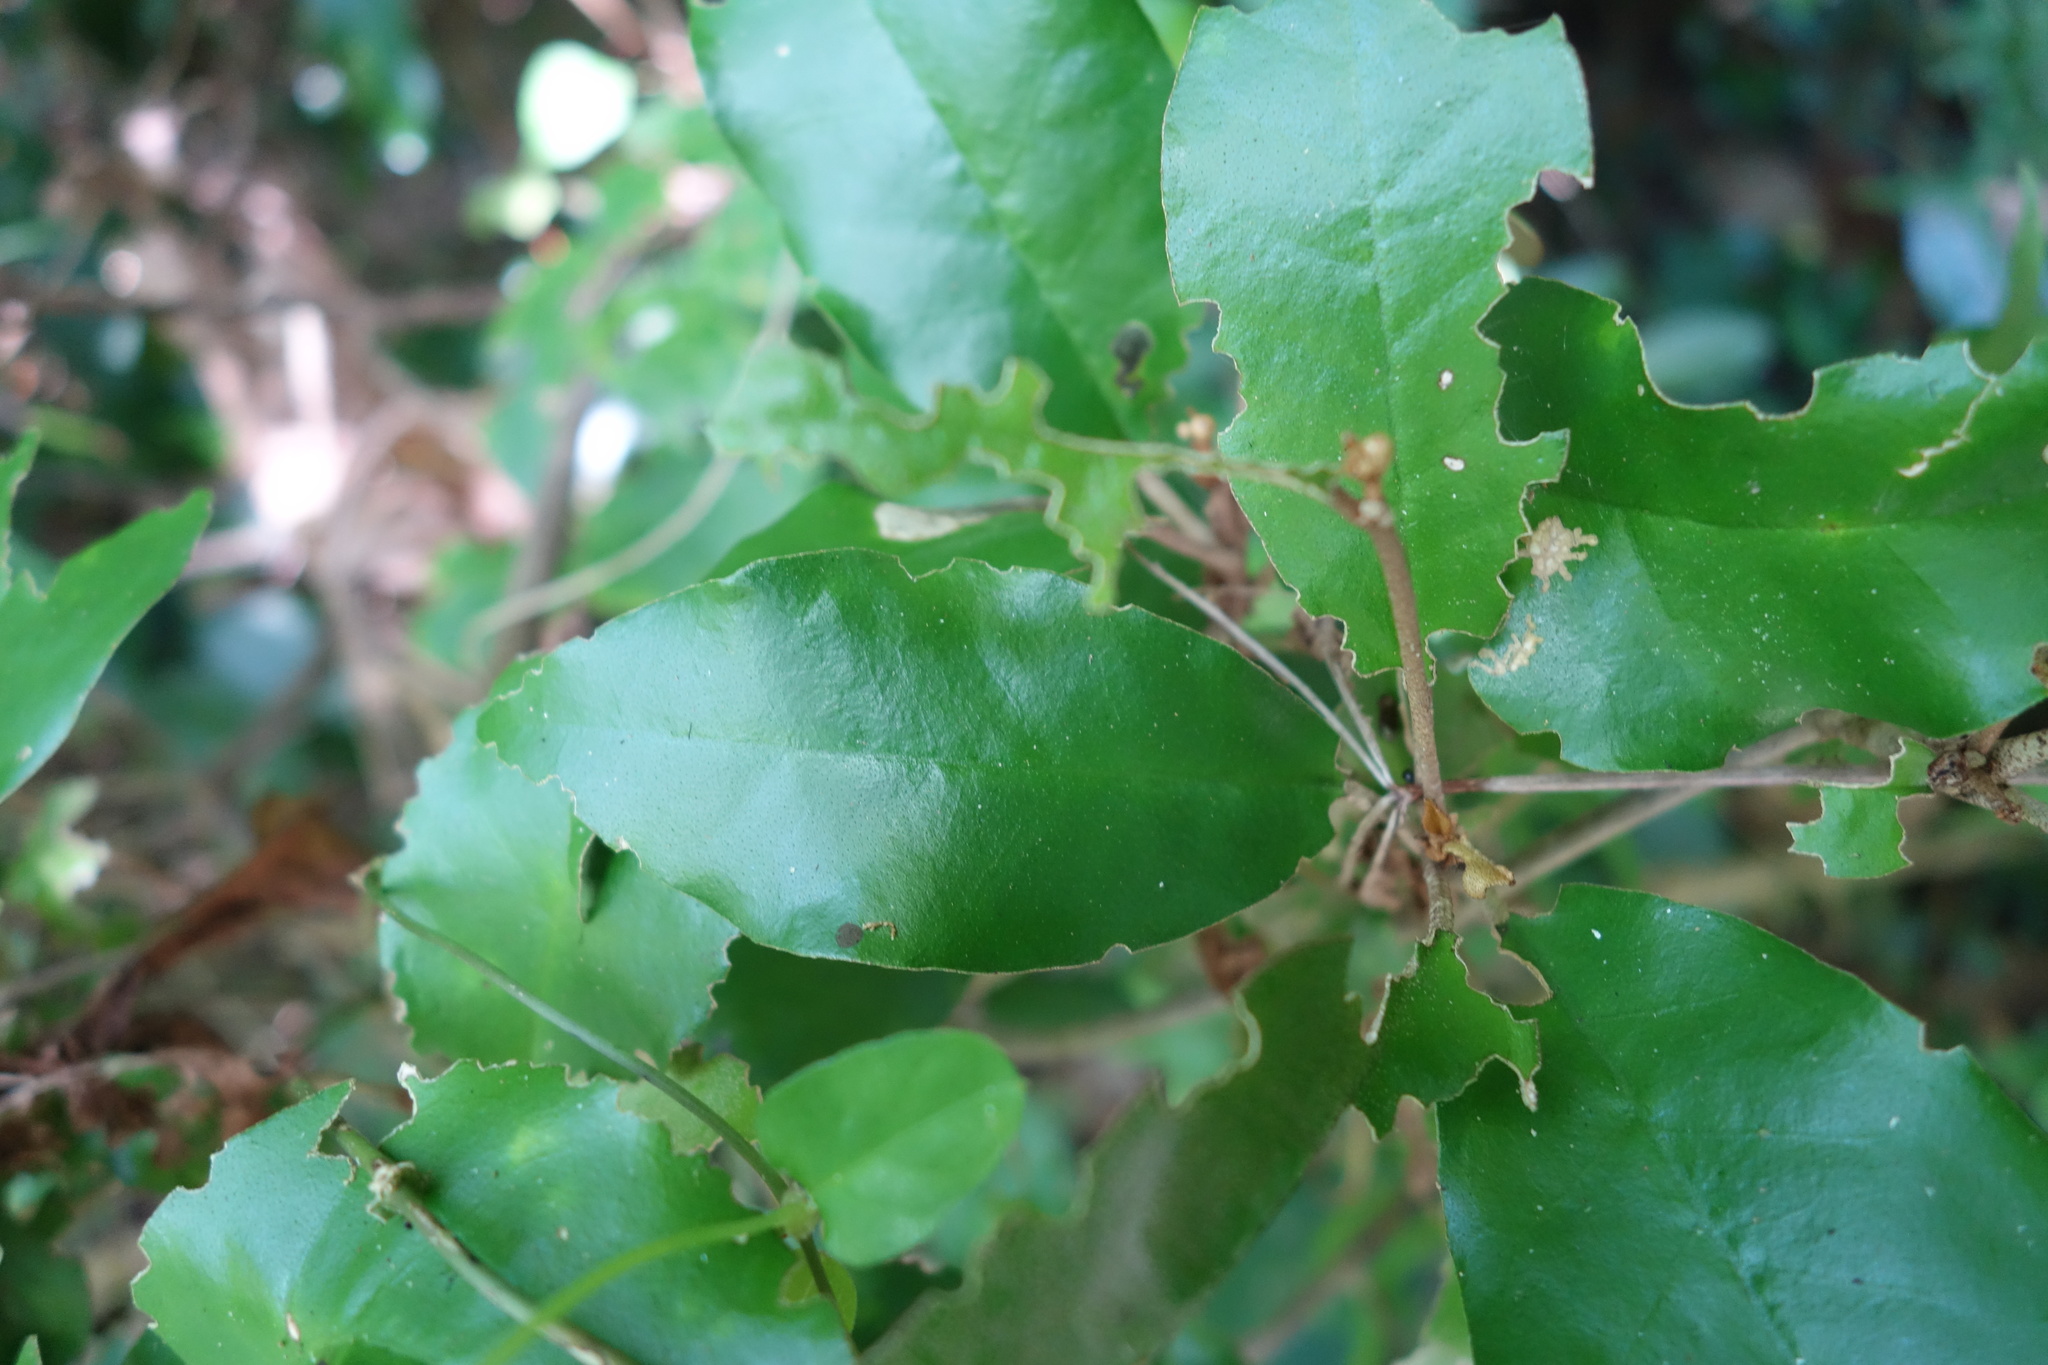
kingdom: Plantae
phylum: Tracheophyta
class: Magnoliopsida
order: Malpighiales
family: Euphorbiaceae
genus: Croton
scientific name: Croton cascarilloides
